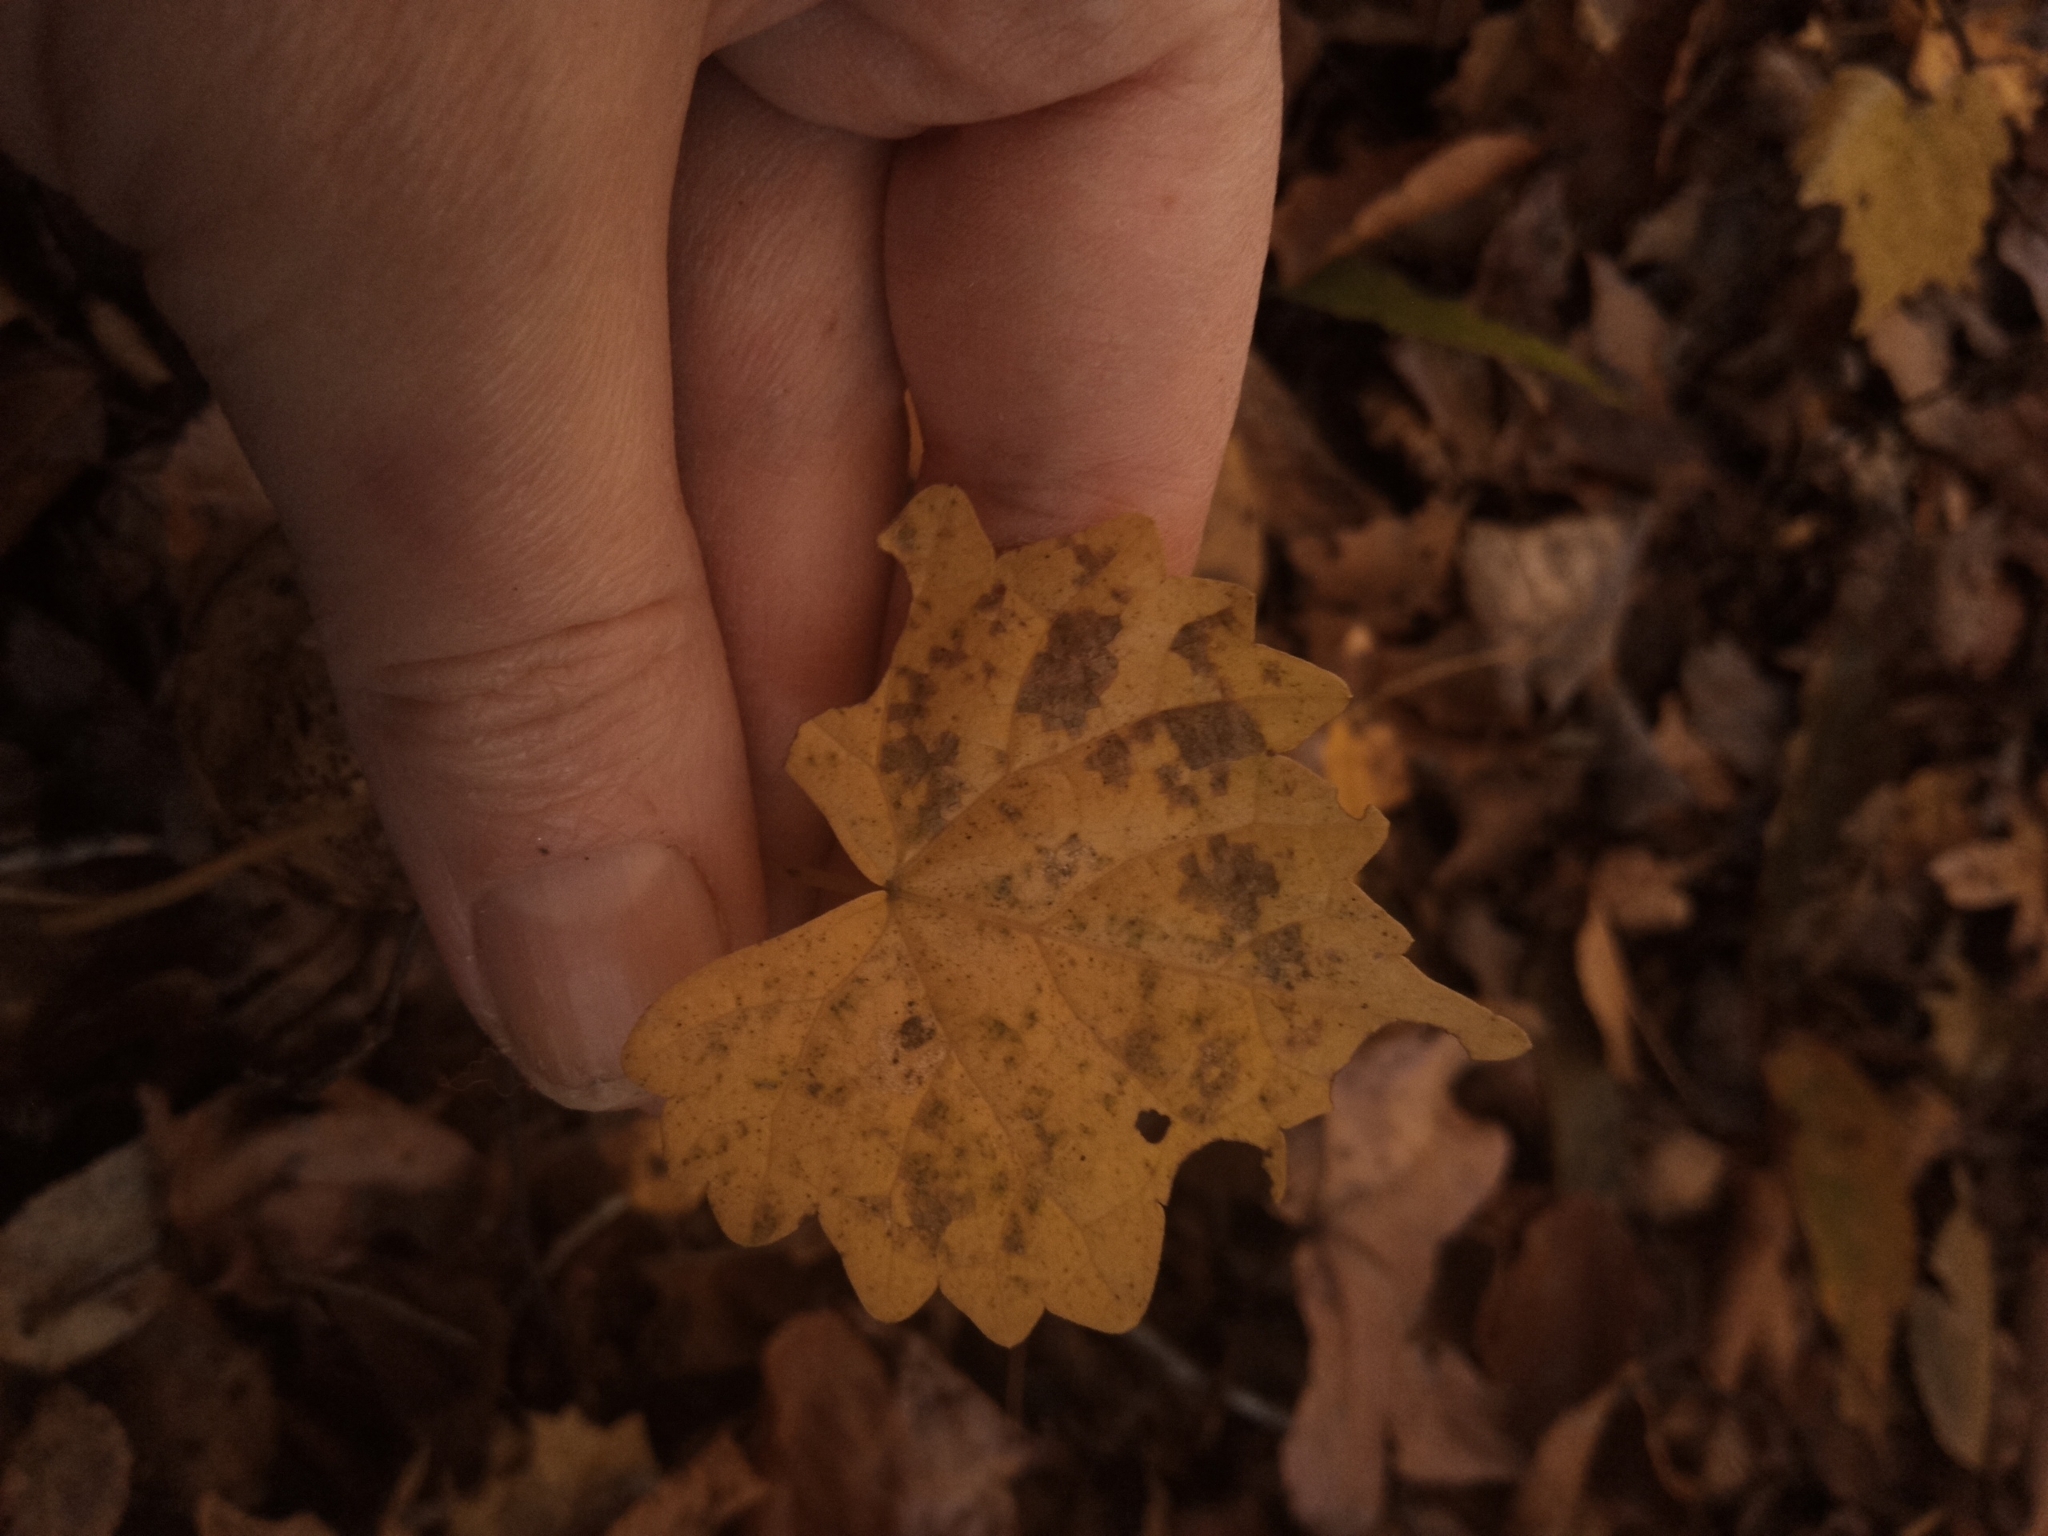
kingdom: Plantae
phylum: Tracheophyta
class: Magnoliopsida
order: Vitales
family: Vitaceae
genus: Vitis
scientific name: Vitis rotundifolia
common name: Muscadine grape
